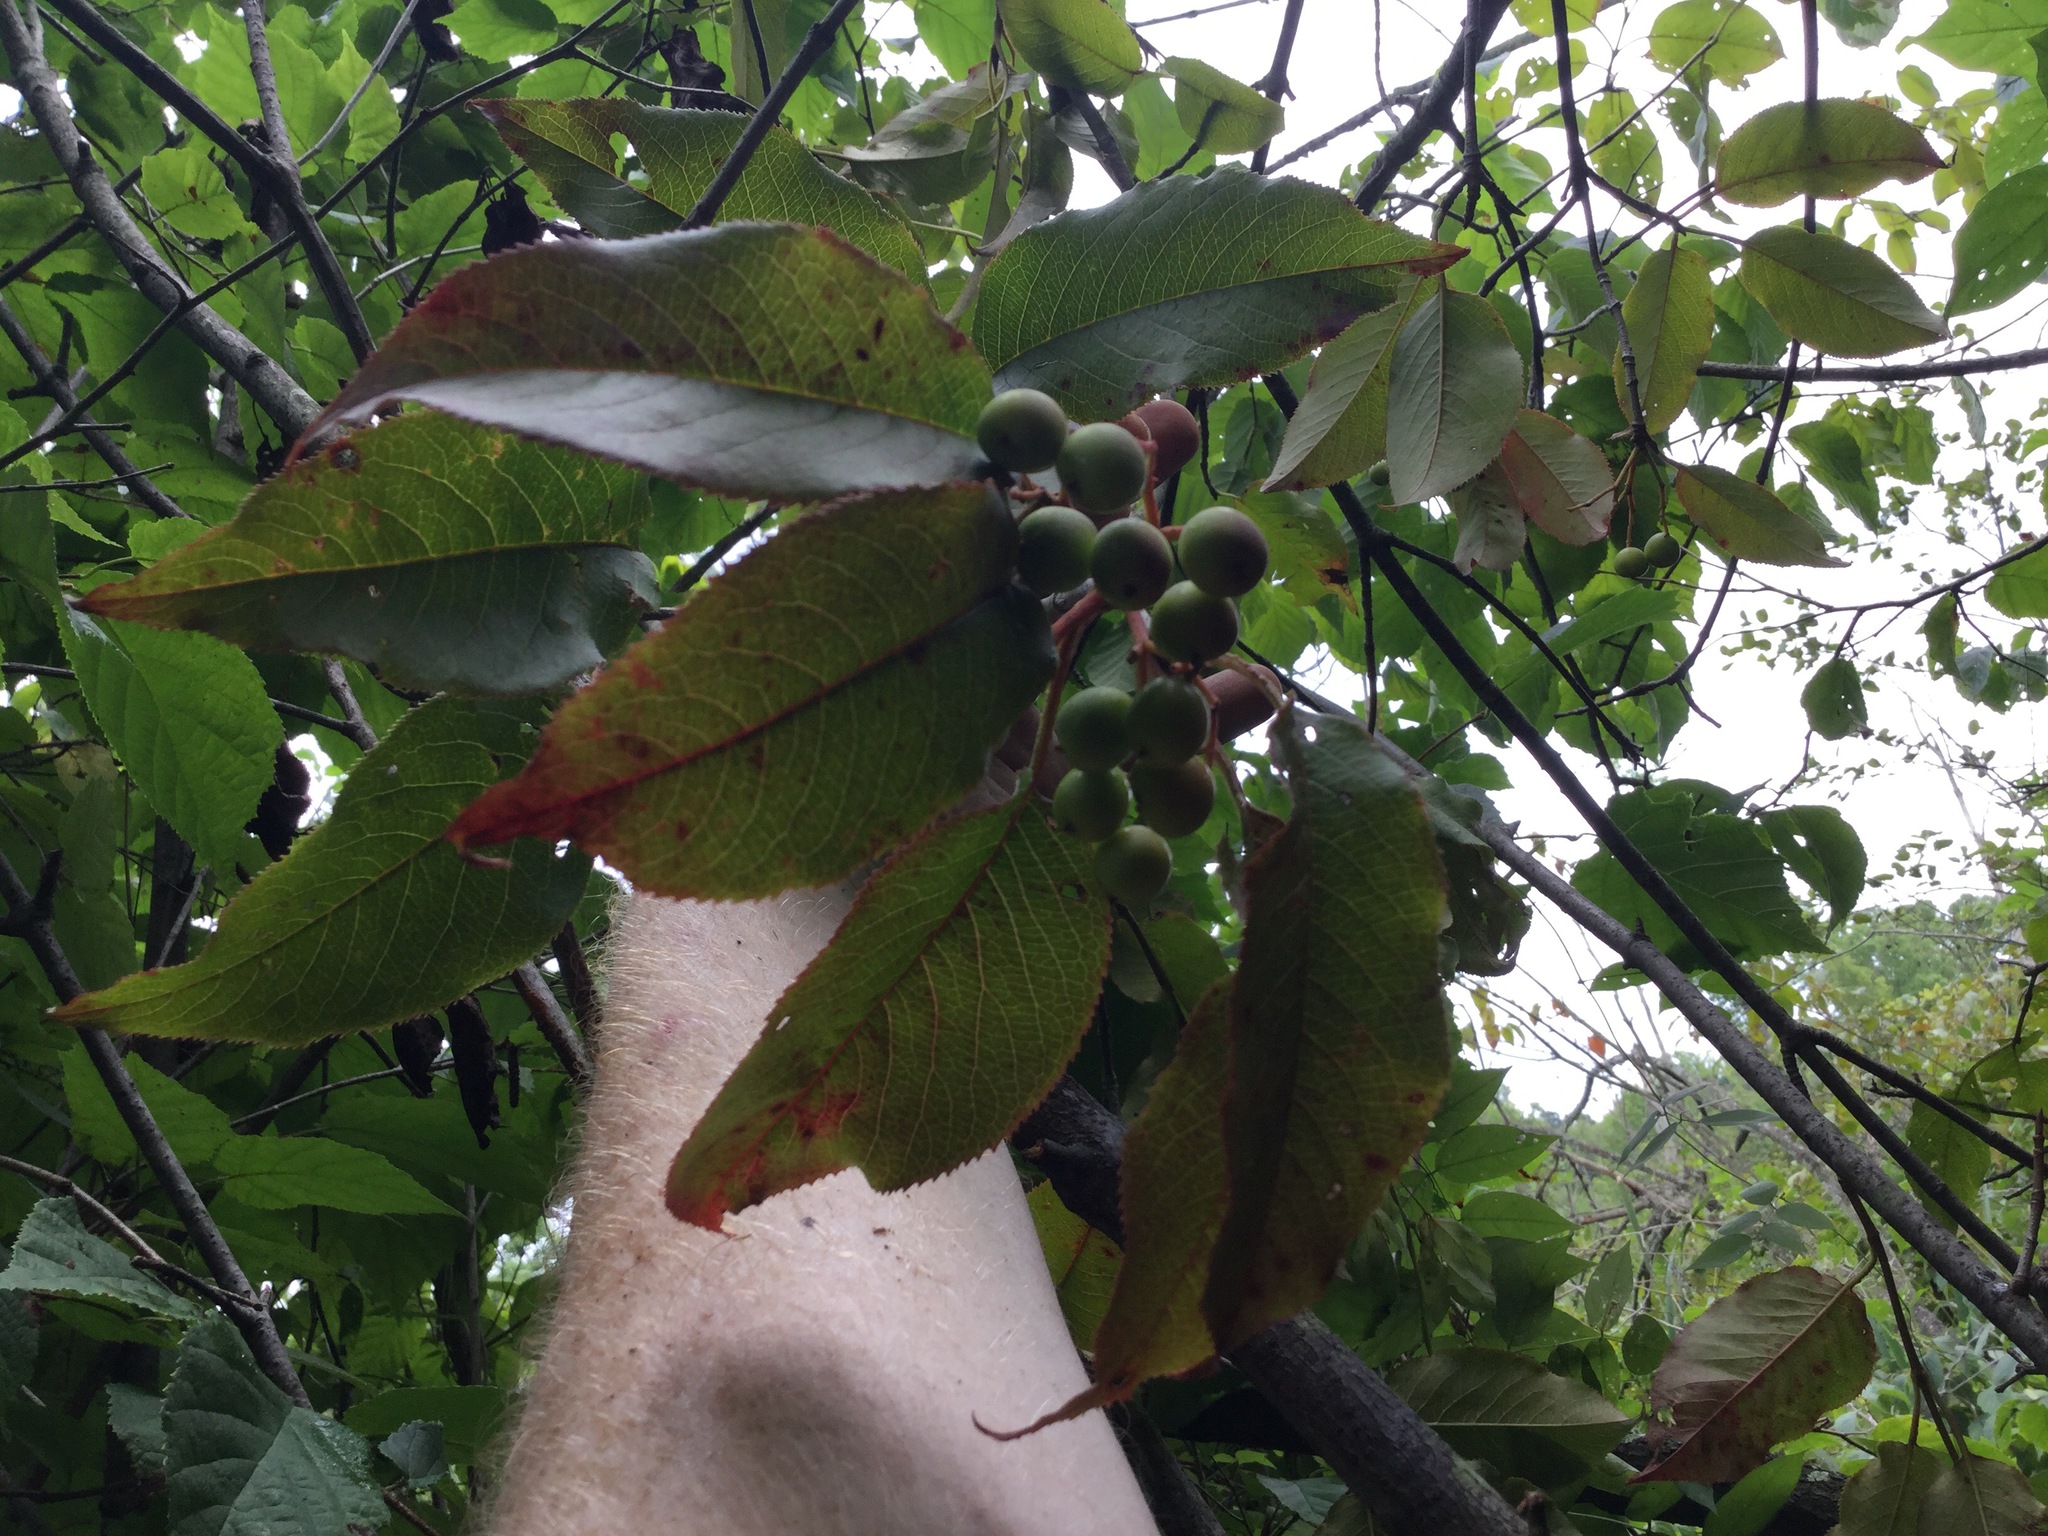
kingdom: Plantae
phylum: Tracheophyta
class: Magnoliopsida
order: Dipsacales
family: Viburnaceae
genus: Viburnum
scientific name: Viburnum lentago
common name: Black haw
